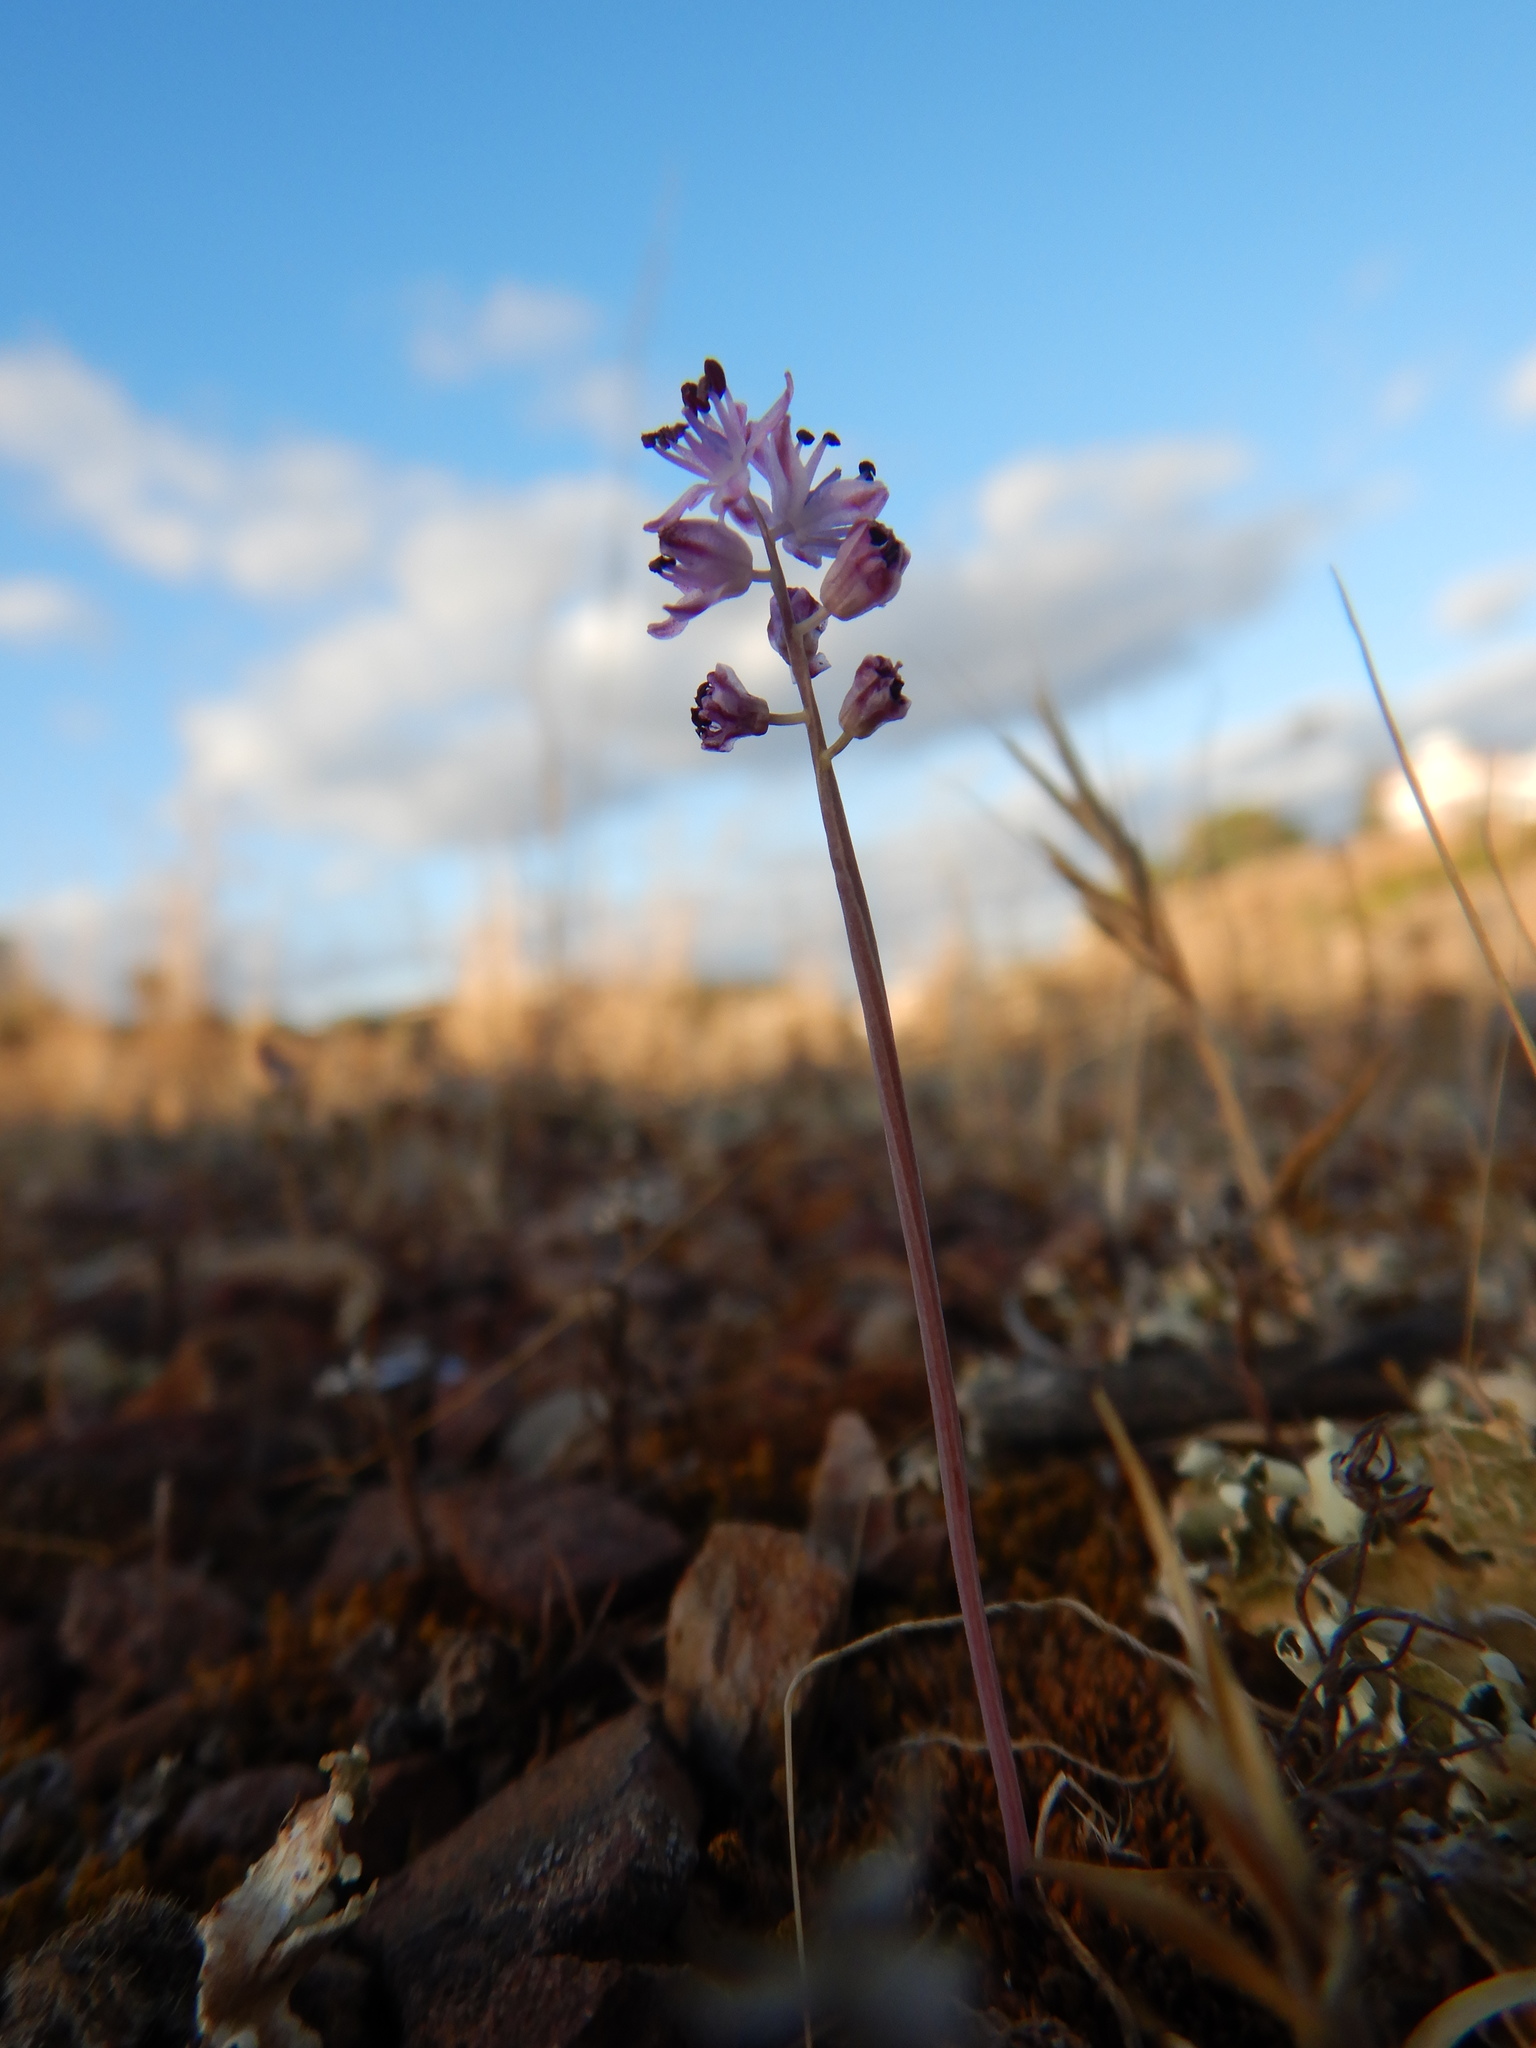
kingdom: Plantae
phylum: Tracheophyta
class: Liliopsida
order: Asparagales
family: Asparagaceae
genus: Prospero
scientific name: Prospero autumnale
